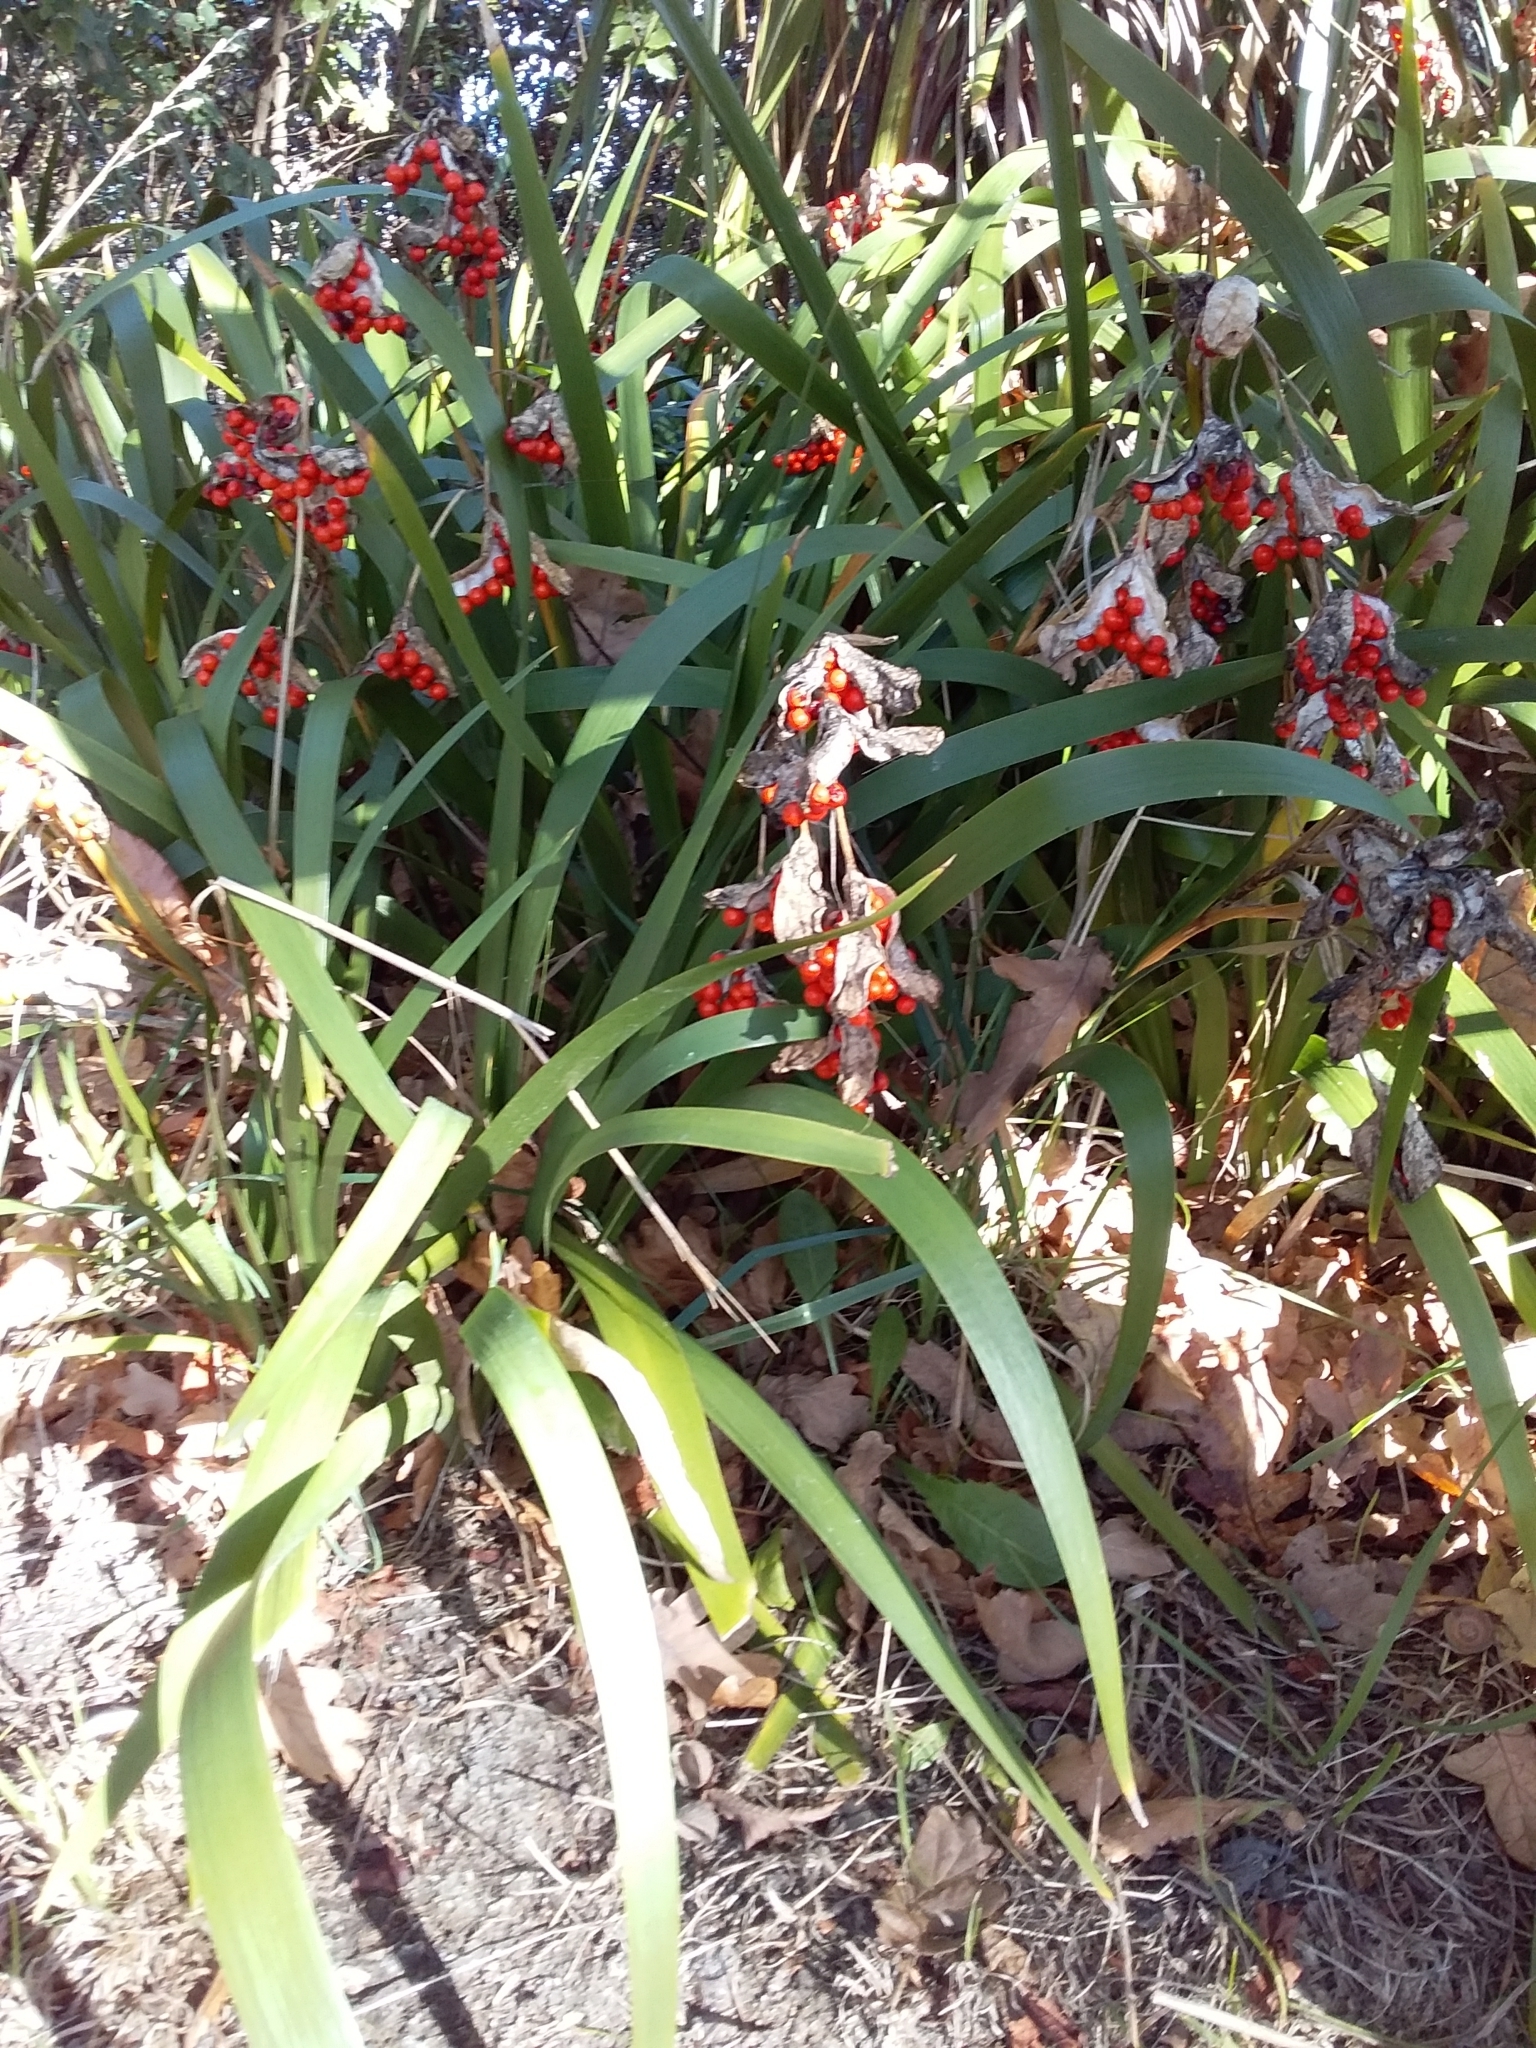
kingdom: Plantae
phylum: Tracheophyta
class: Liliopsida
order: Asparagales
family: Iridaceae
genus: Iris
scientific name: Iris foetidissima
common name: Stinking iris
